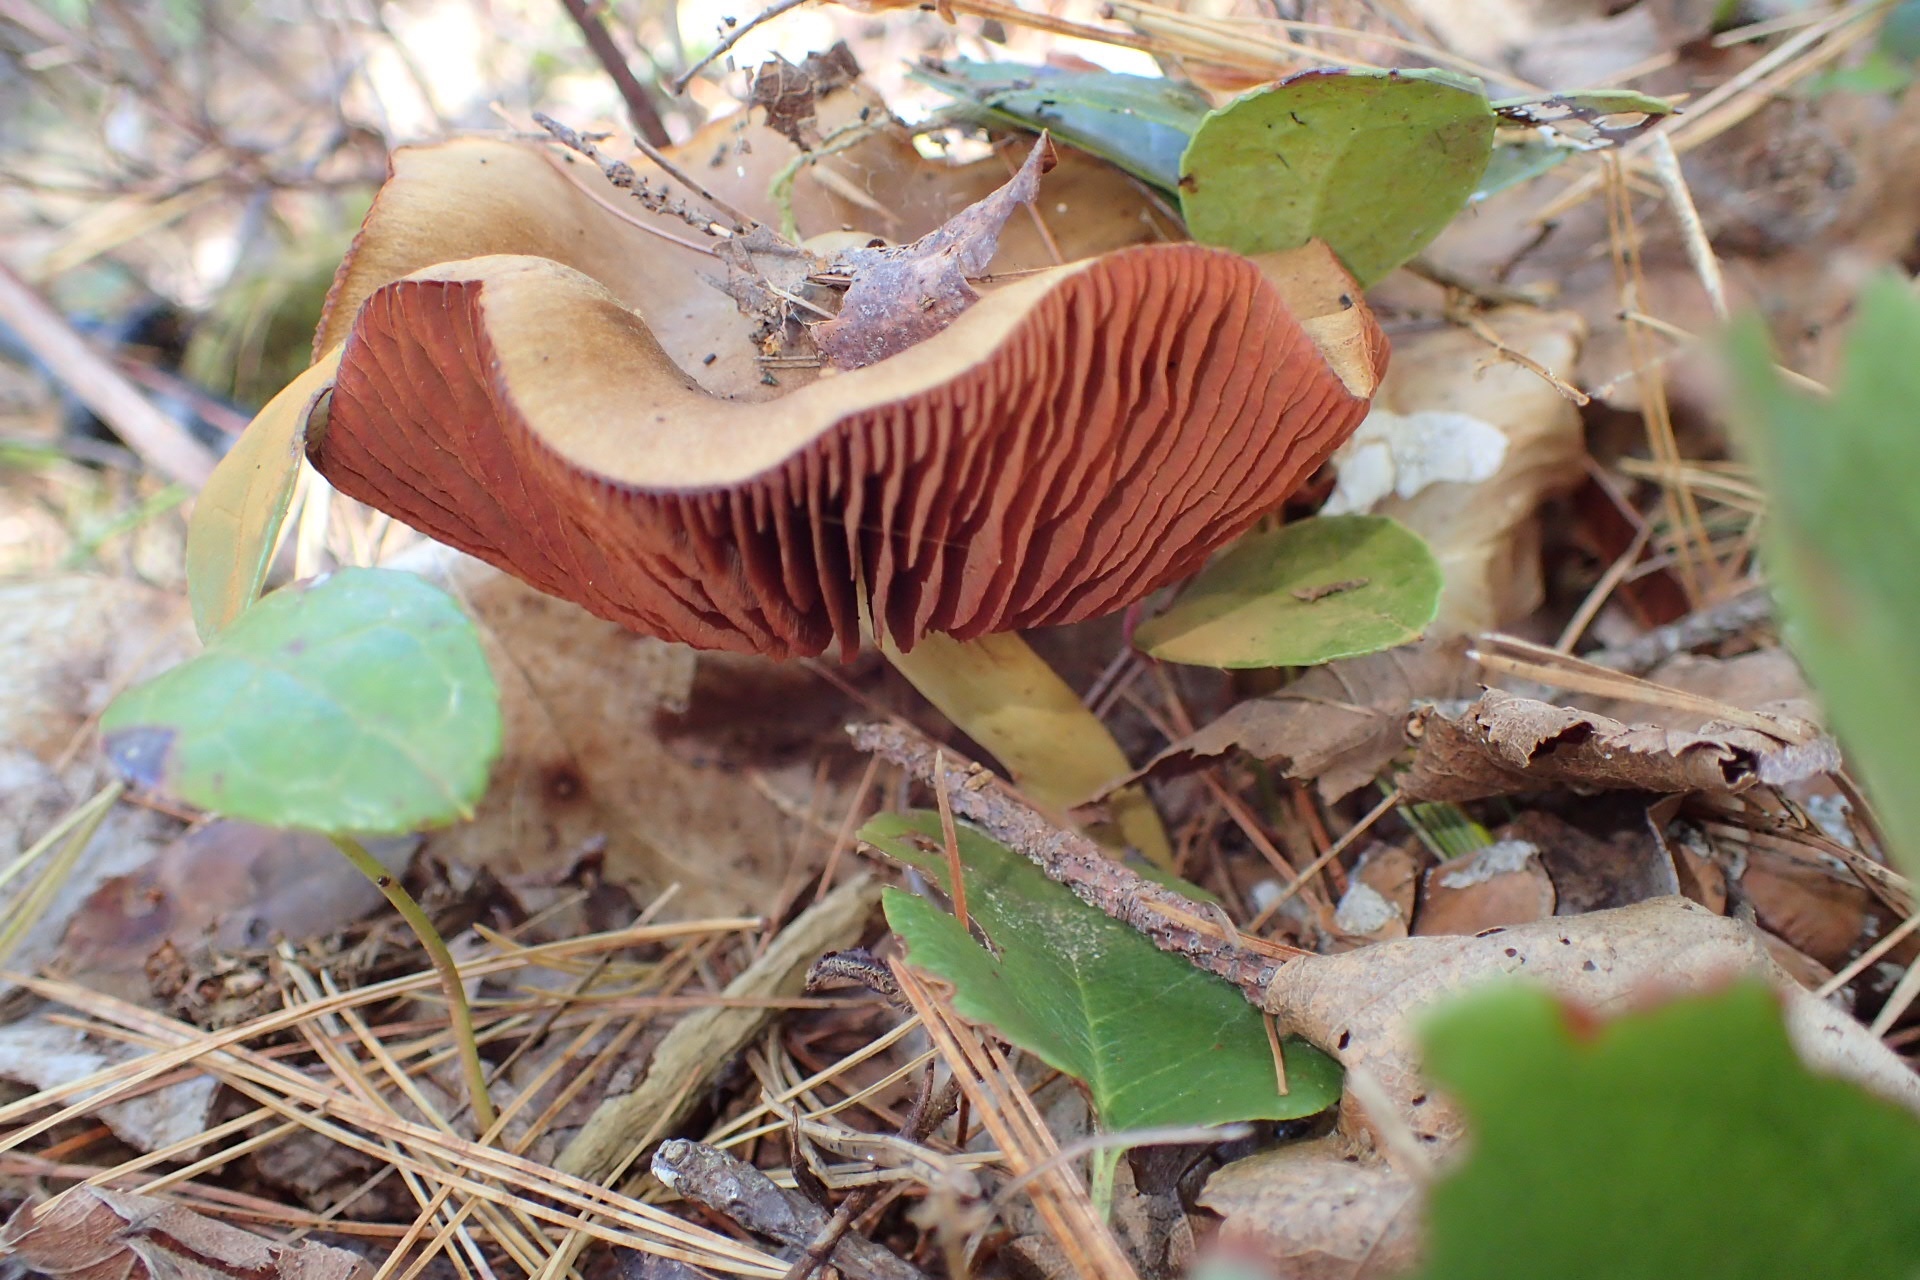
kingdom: Fungi
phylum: Basidiomycota
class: Agaricomycetes
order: Agaricales
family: Cortinariaceae
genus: Cortinarius
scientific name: Cortinarius semisanguineus
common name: Surprise webcap
